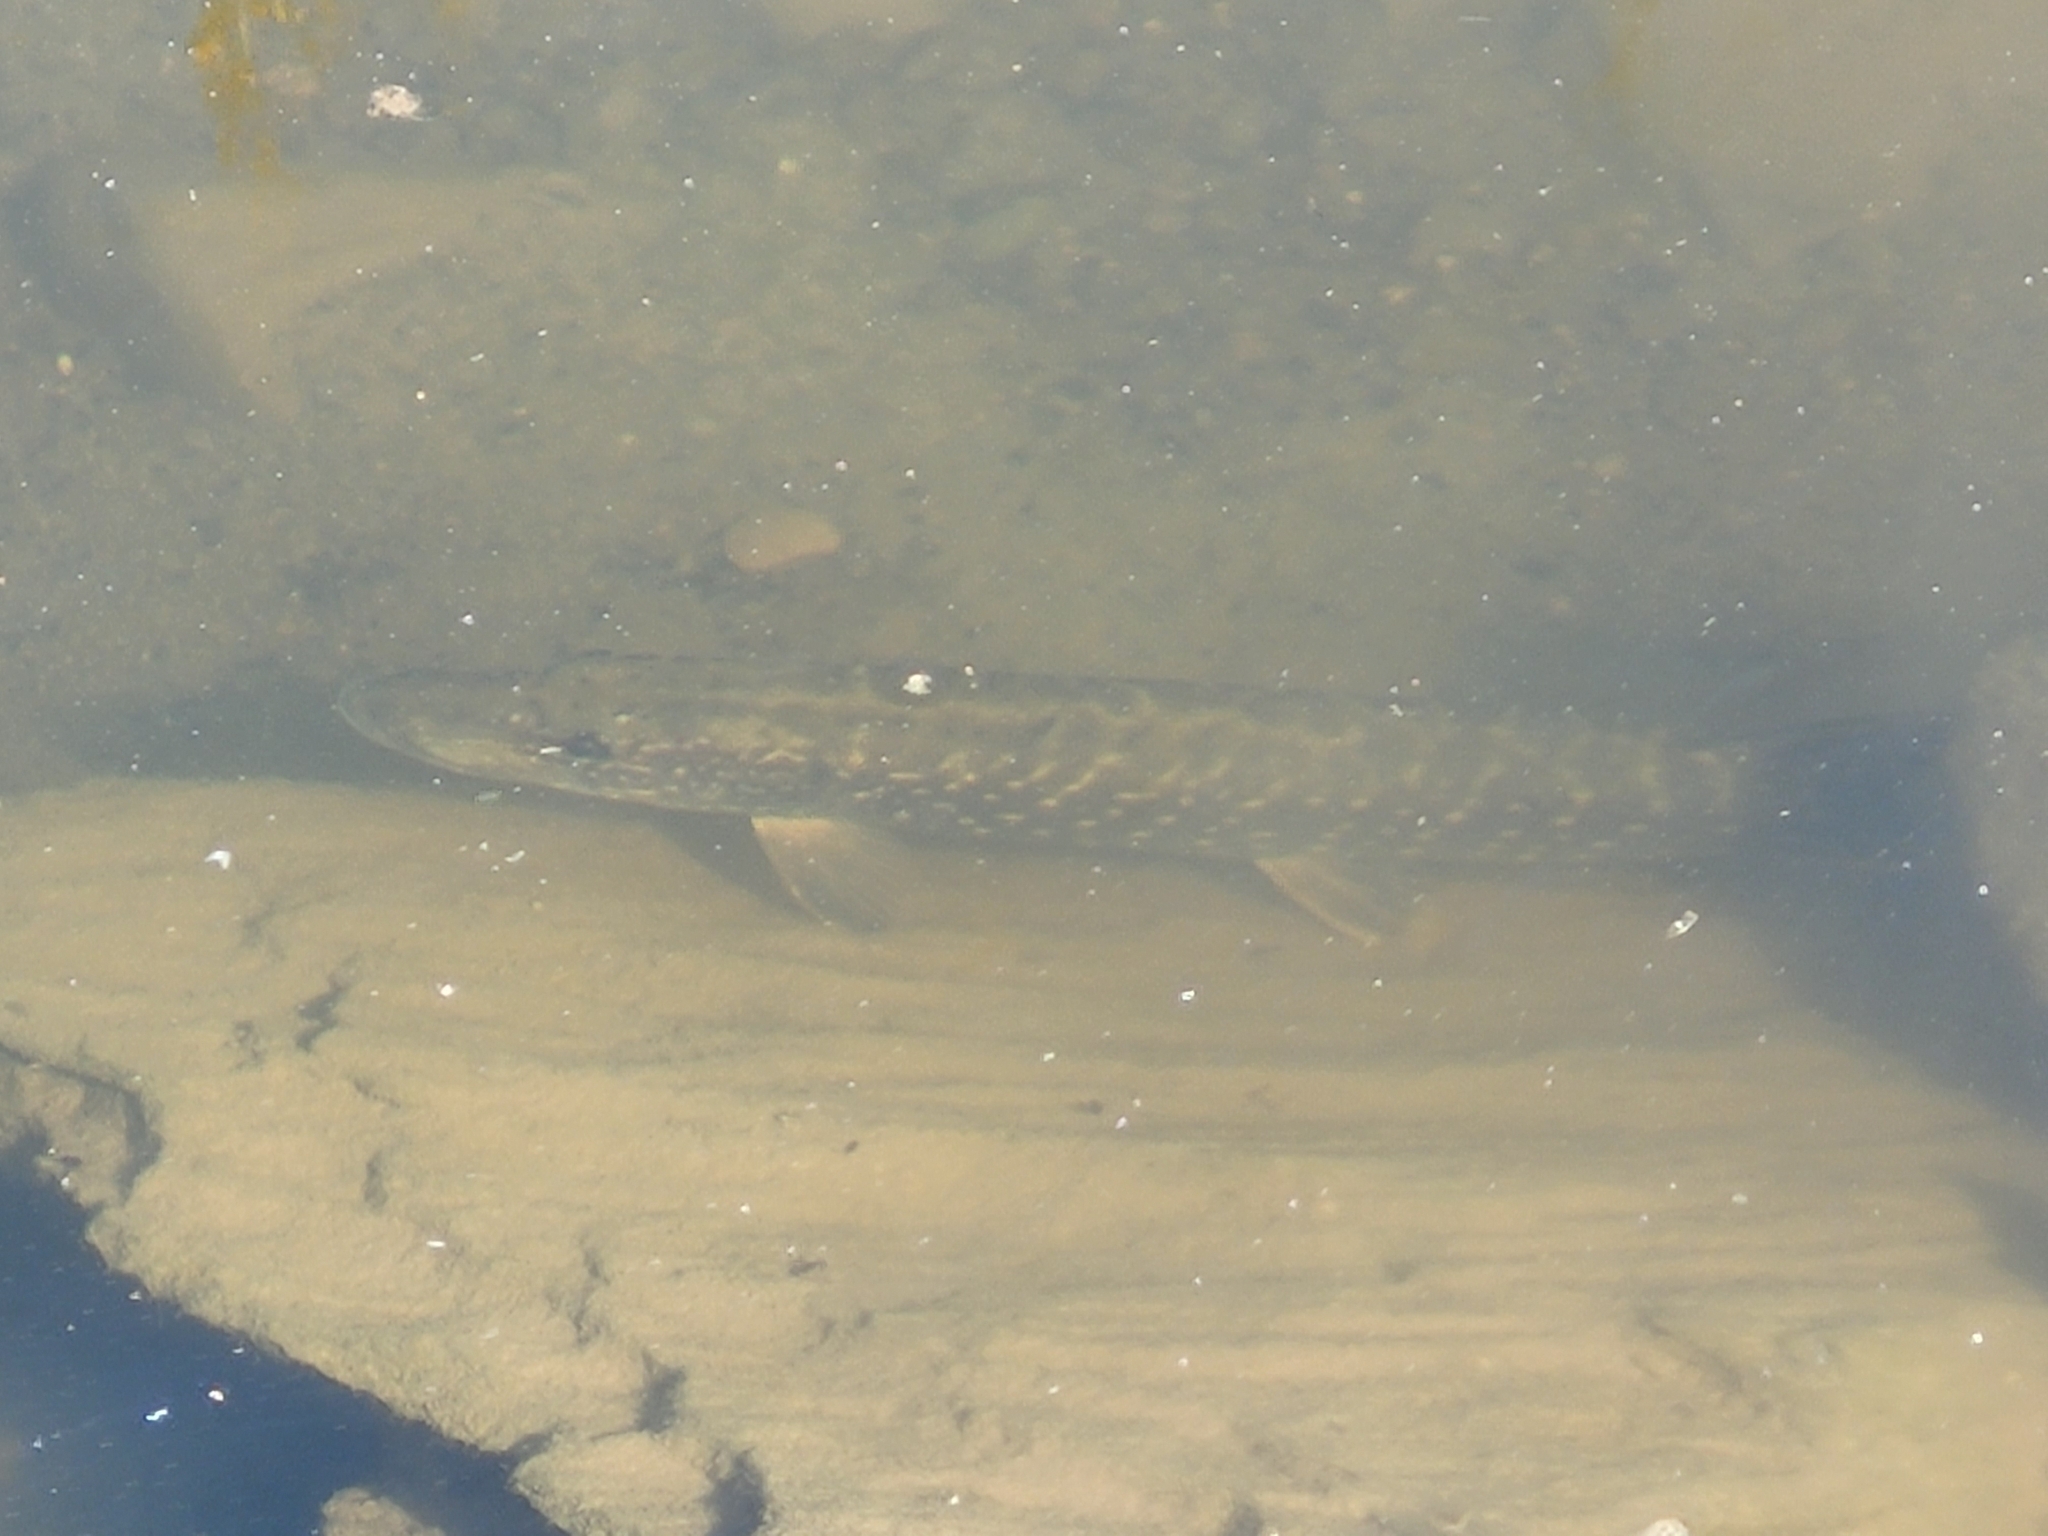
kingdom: Animalia
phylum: Chordata
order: Esociformes
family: Esocidae
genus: Esox
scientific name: Esox lucius
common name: Northern pike
